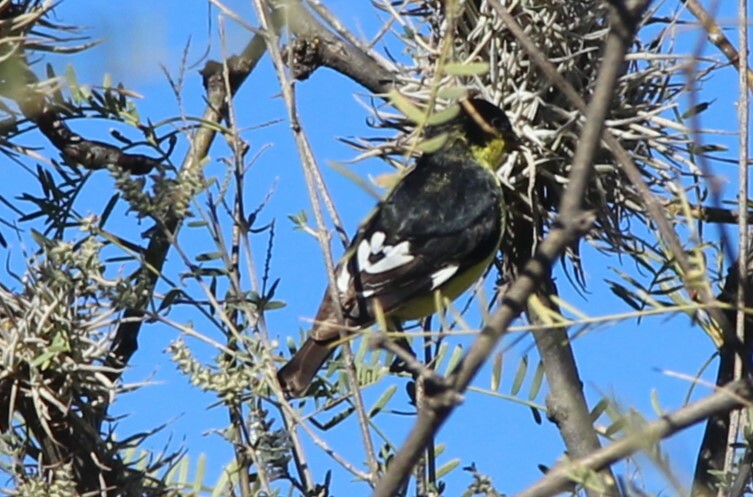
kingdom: Animalia
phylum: Chordata
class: Aves
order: Passeriformes
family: Fringillidae
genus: Spinus
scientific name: Spinus psaltria
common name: Lesser goldfinch
